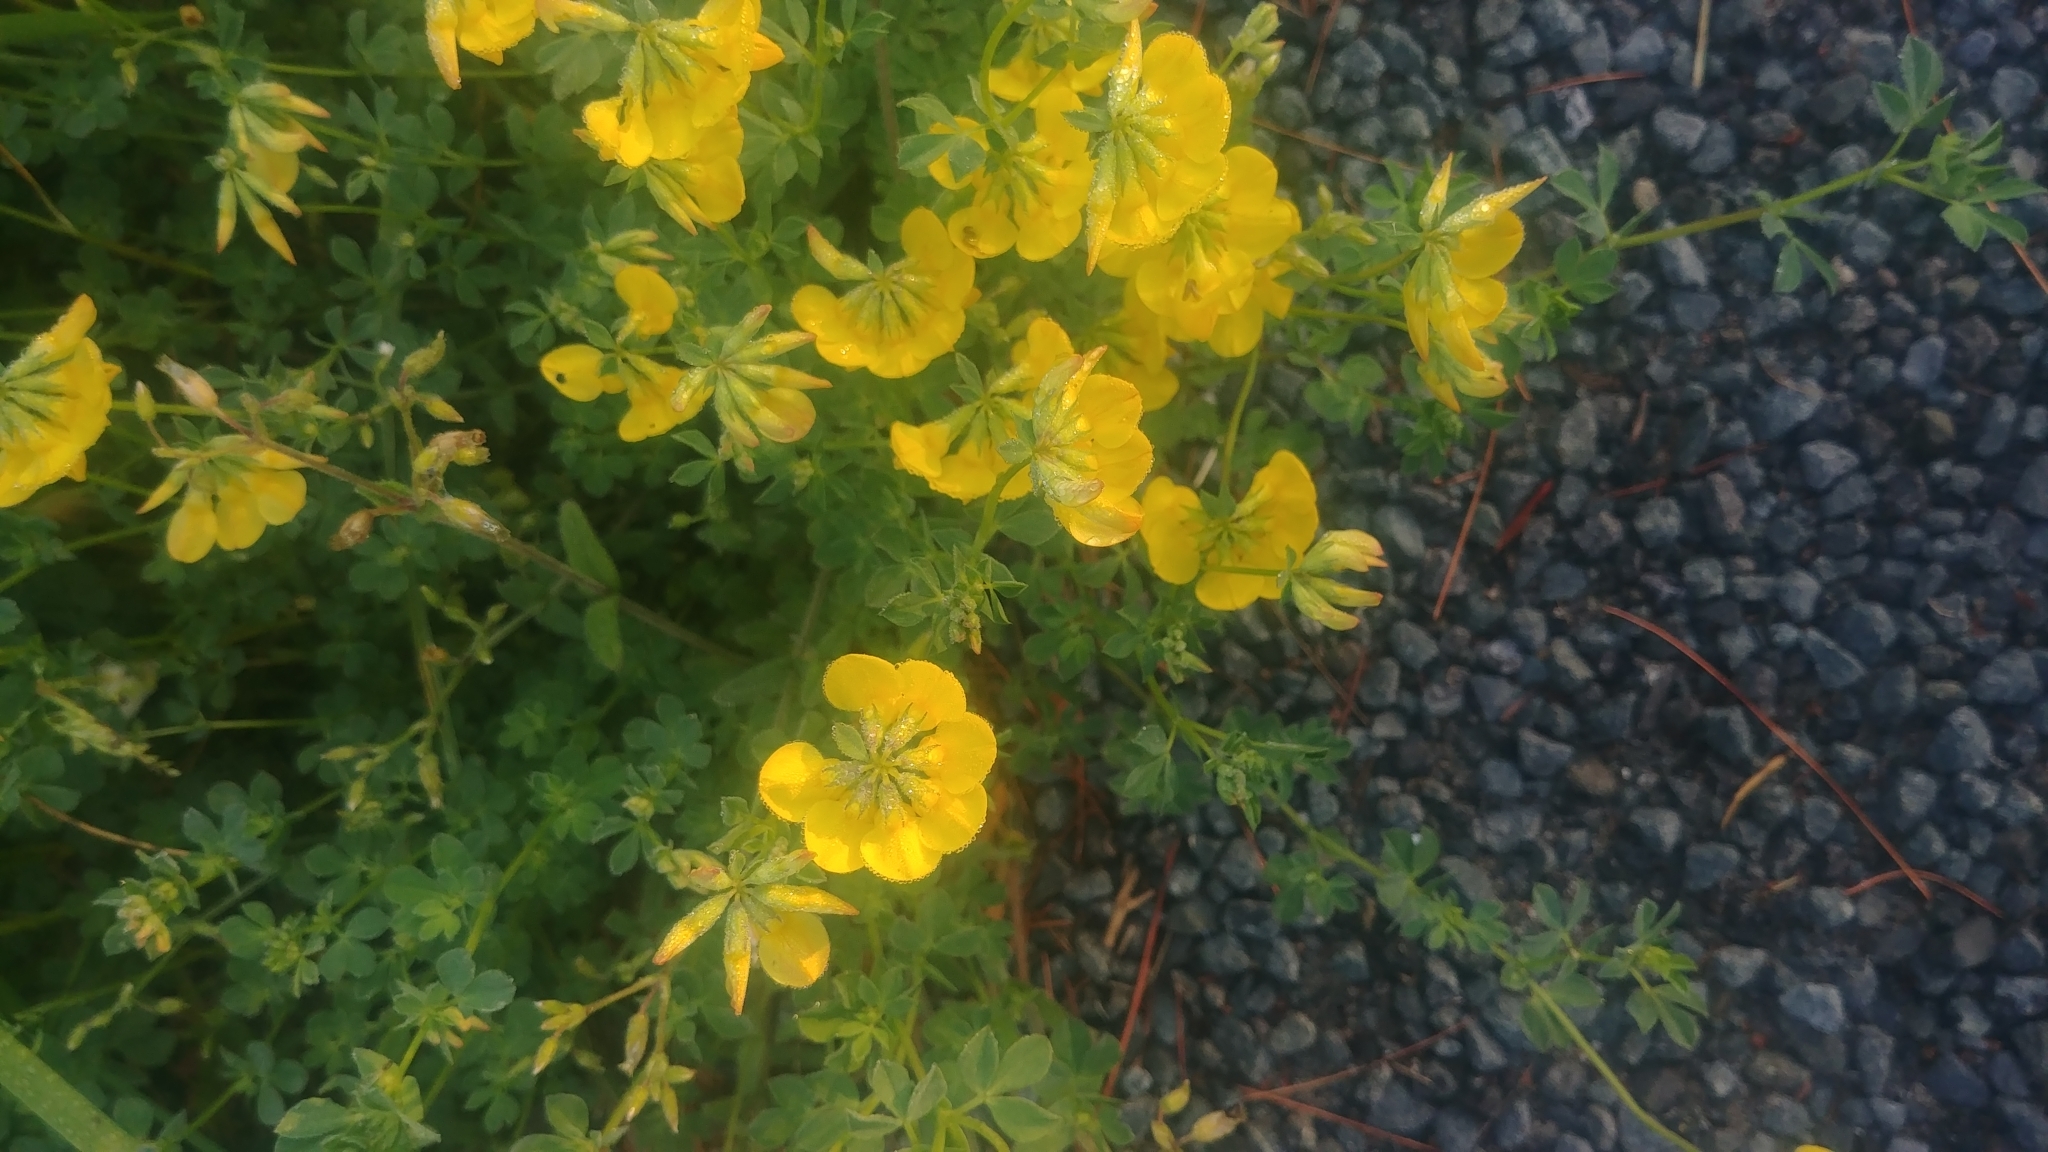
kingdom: Plantae
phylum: Tracheophyta
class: Magnoliopsida
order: Fabales
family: Fabaceae
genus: Lotus
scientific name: Lotus corniculatus
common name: Common bird's-foot-trefoil
